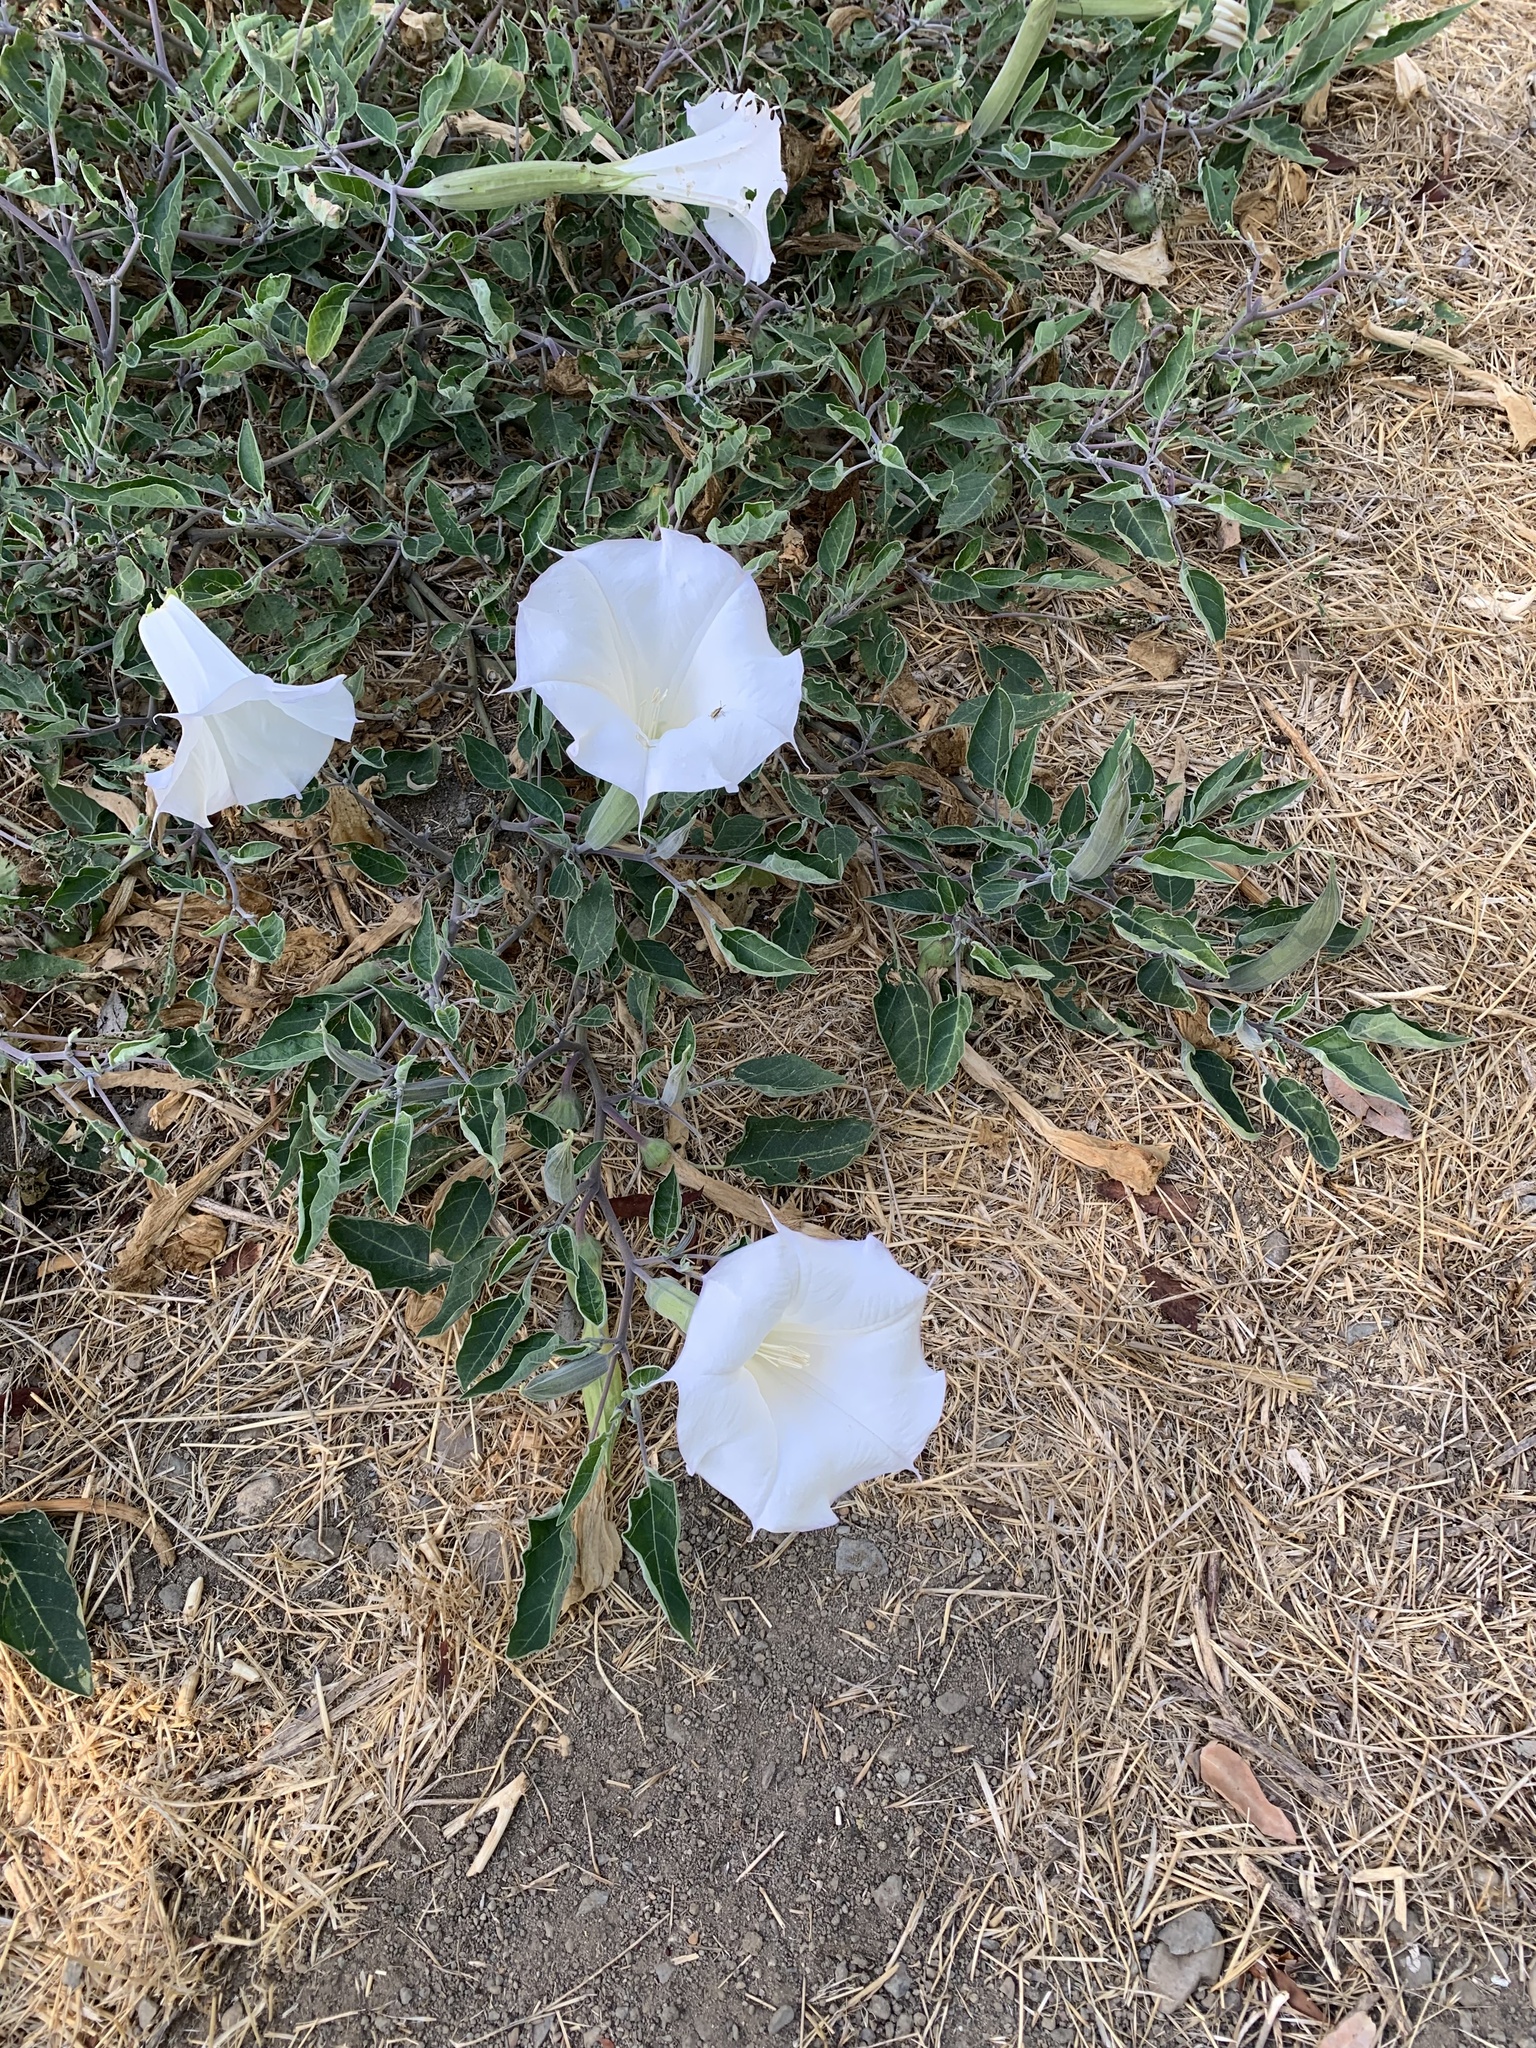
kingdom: Plantae
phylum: Tracheophyta
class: Magnoliopsida
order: Solanales
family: Solanaceae
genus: Datura
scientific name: Datura wrightii
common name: Sacred thorn-apple
